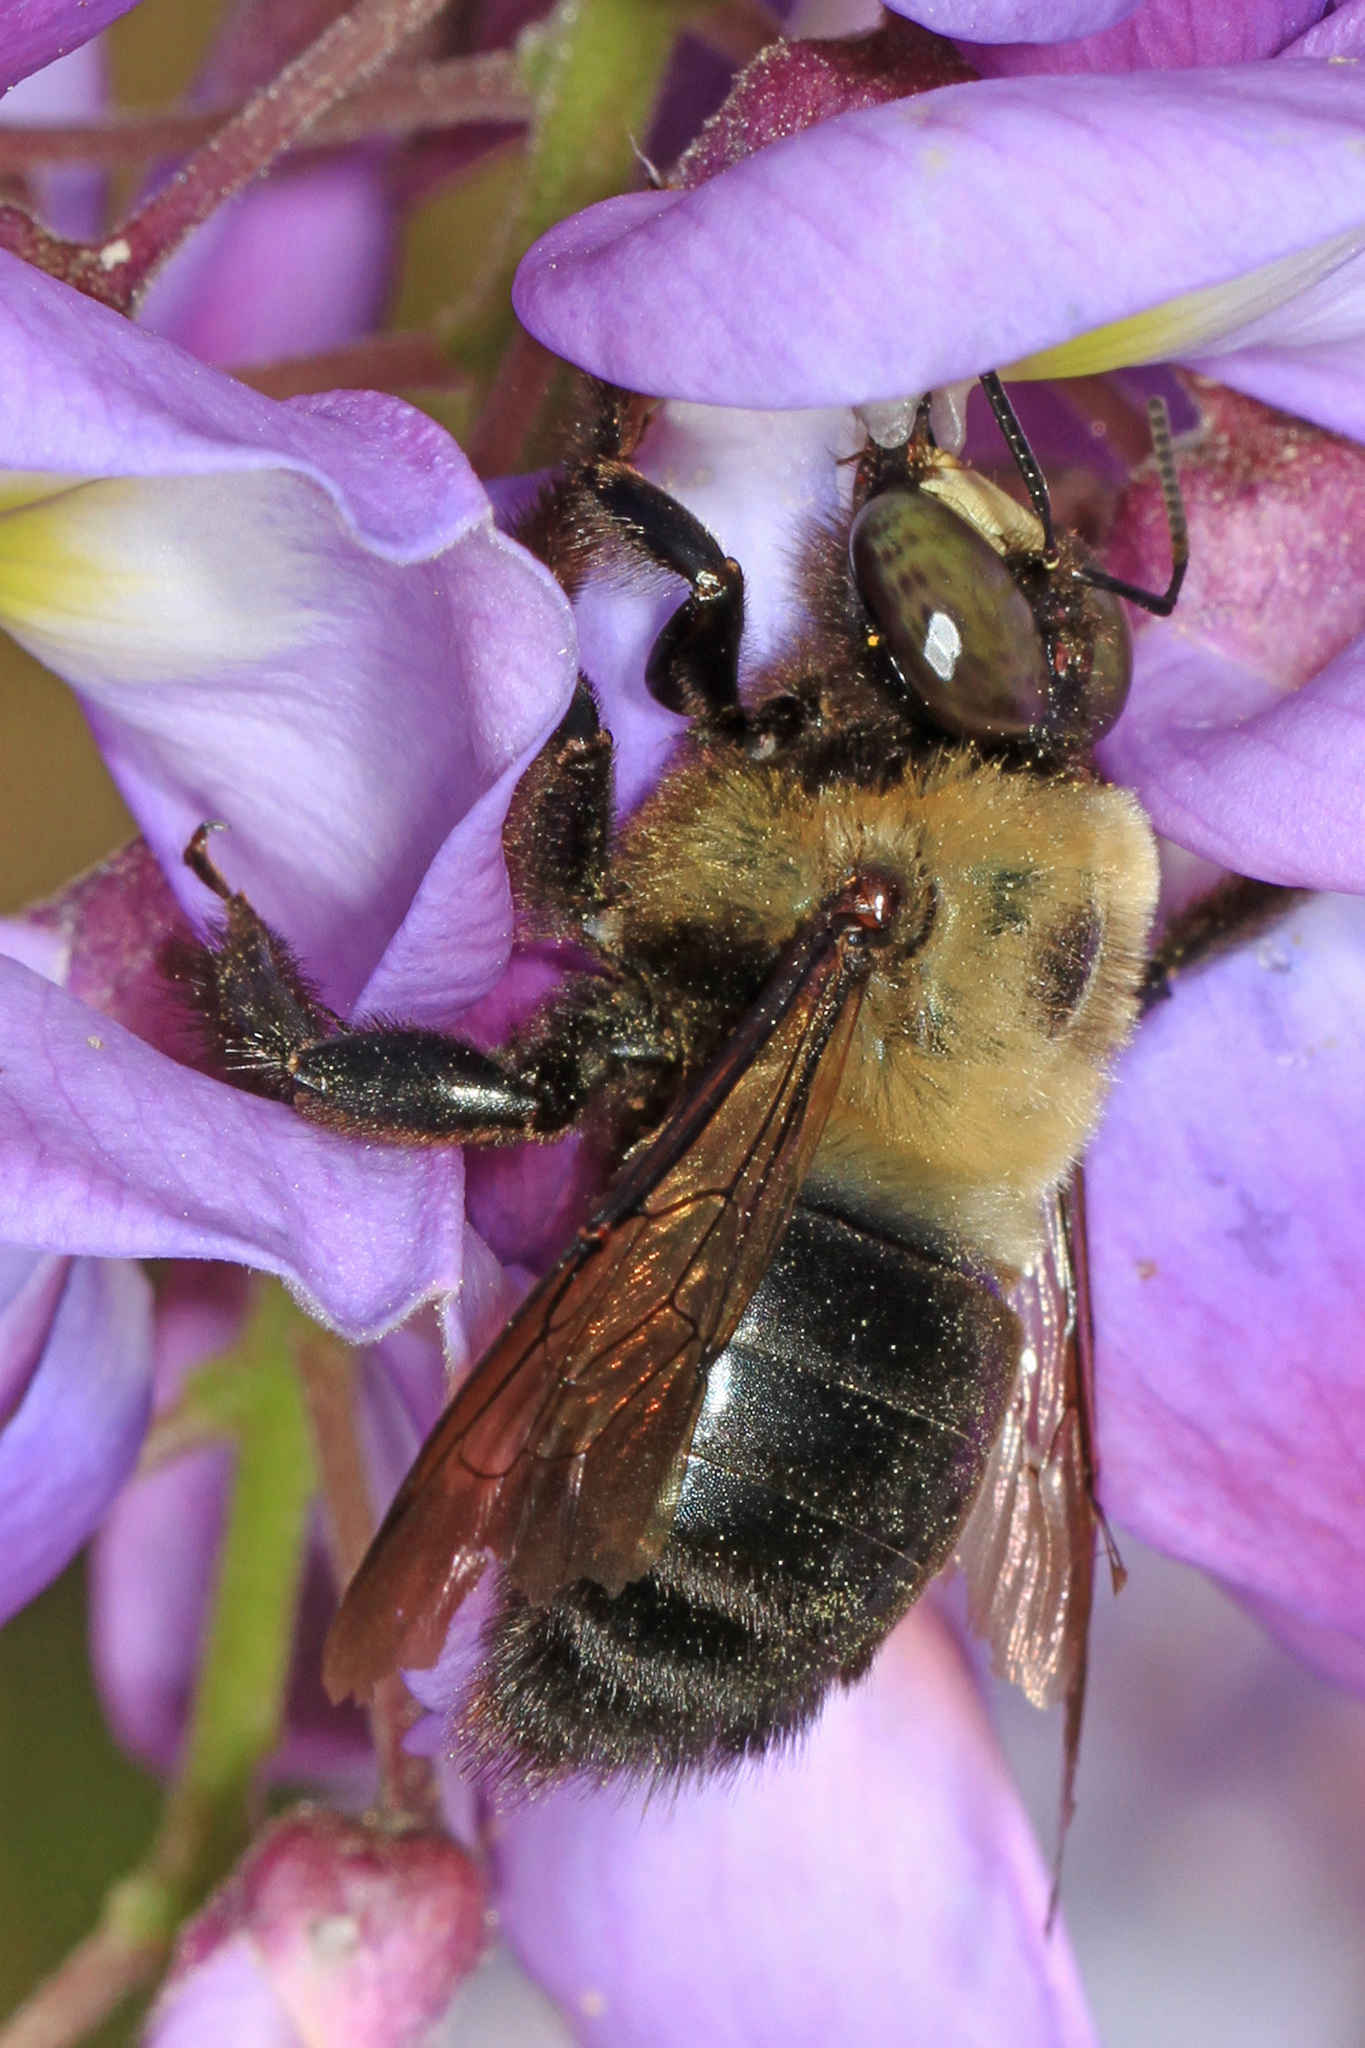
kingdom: Animalia
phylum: Arthropoda
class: Insecta
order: Hymenoptera
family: Apidae
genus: Xylocopa
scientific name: Xylocopa virginica
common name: Carpenter bee
